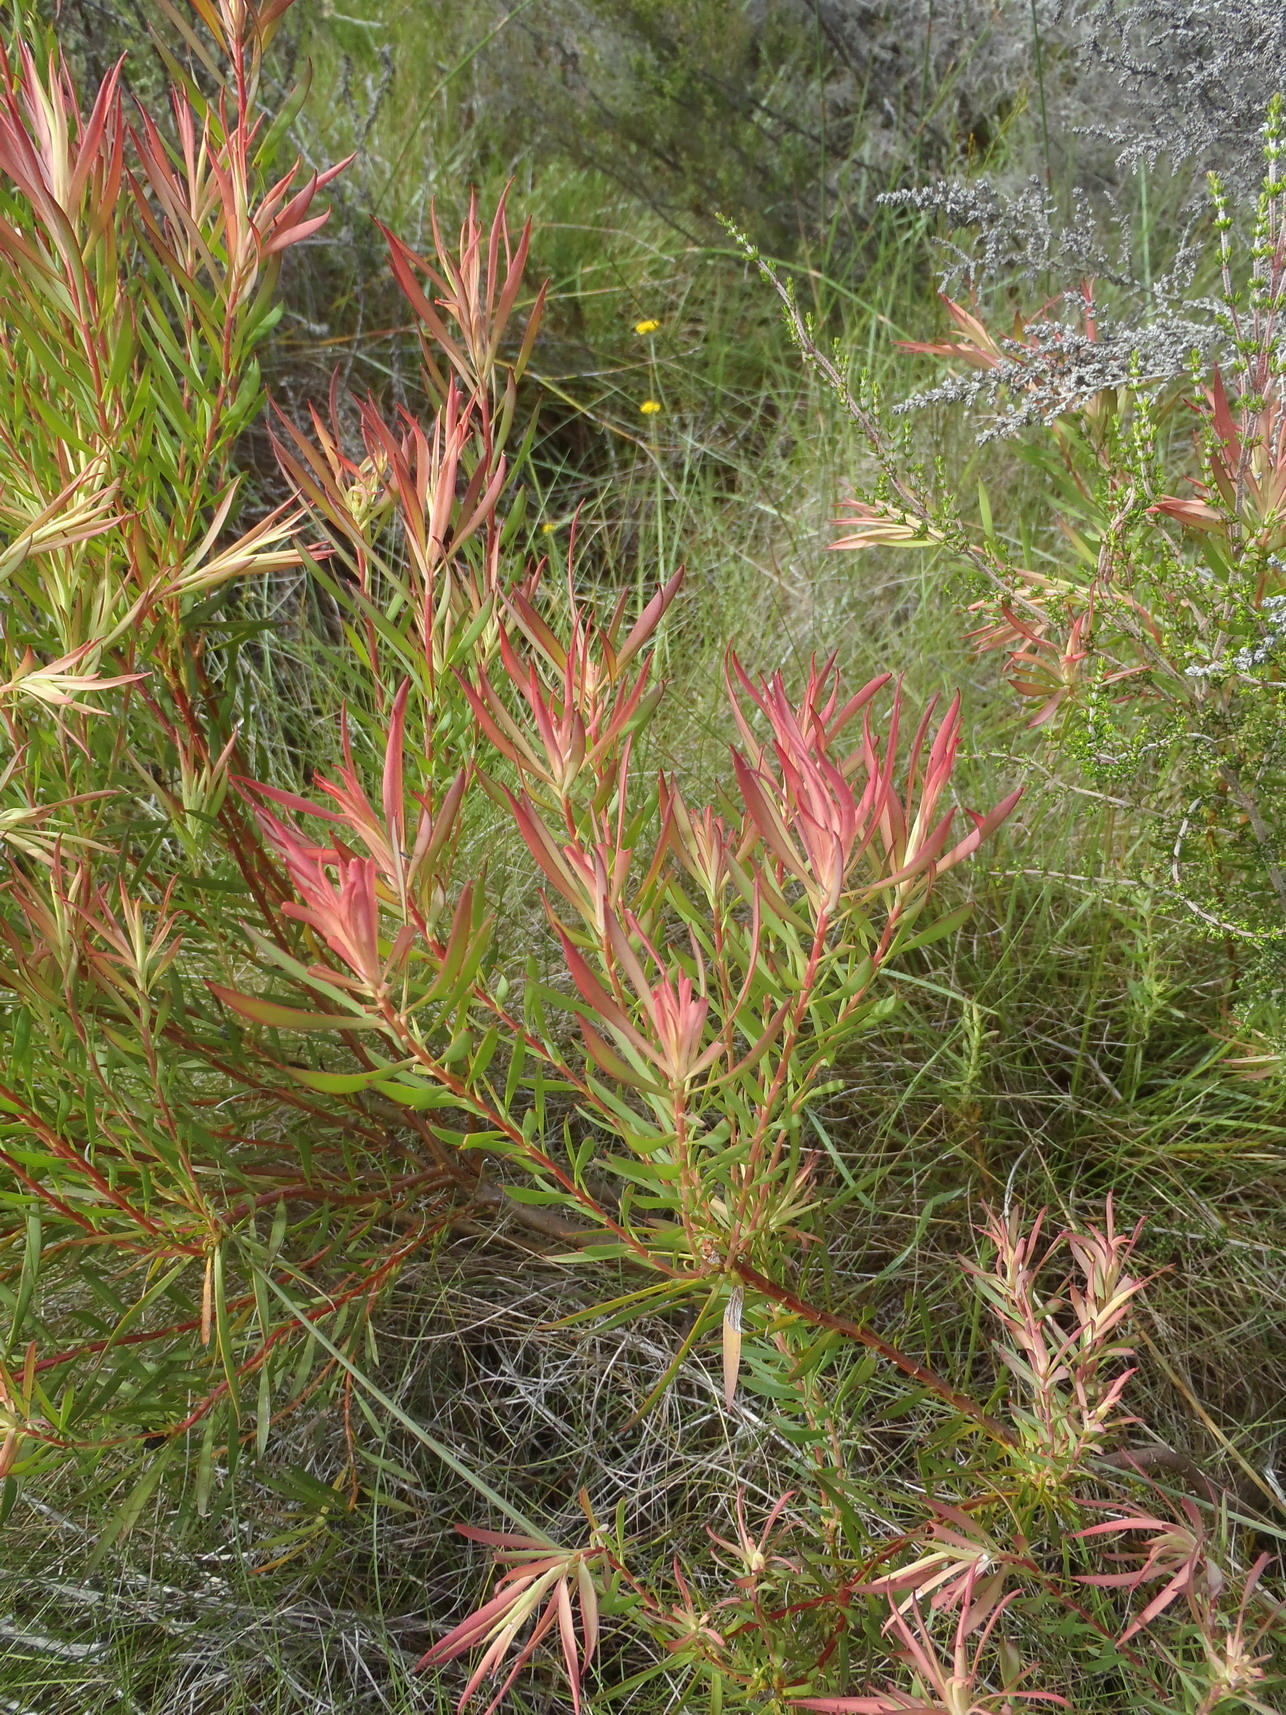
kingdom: Plantae
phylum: Tracheophyta
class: Magnoliopsida
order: Proteales
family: Proteaceae
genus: Leucadendron
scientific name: Leucadendron salignum
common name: Common sunshine conebush
